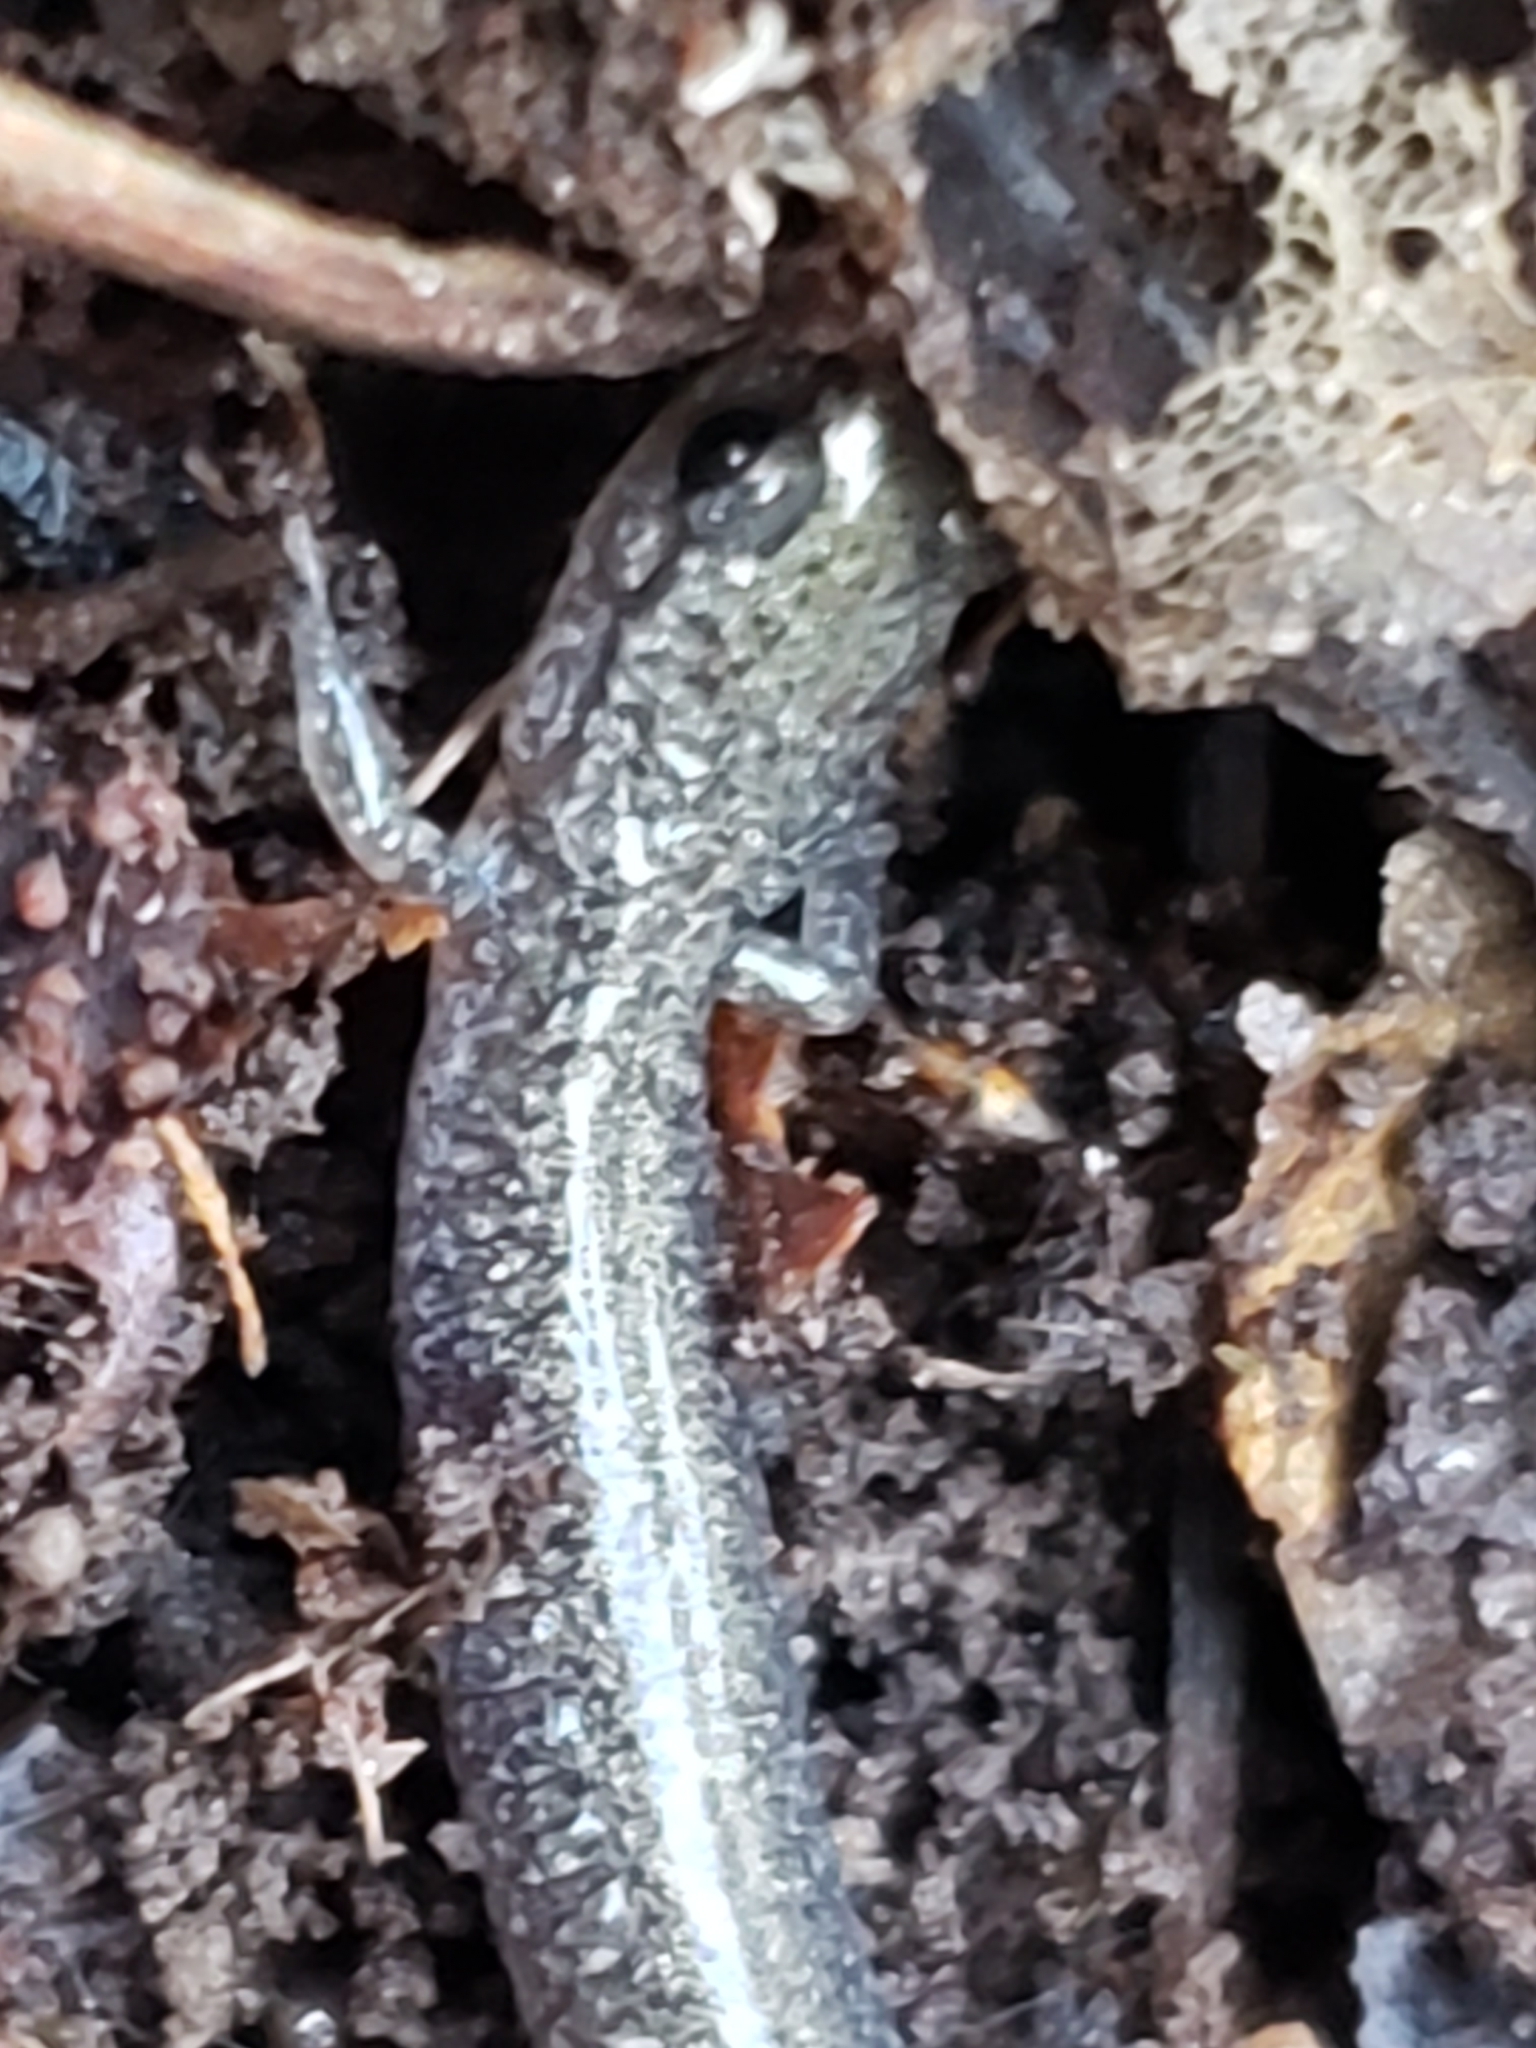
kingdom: Animalia
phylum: Chordata
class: Amphibia
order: Caudata
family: Plethodontidae
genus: Plethodon
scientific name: Plethodon cinereus
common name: Redback salamander
